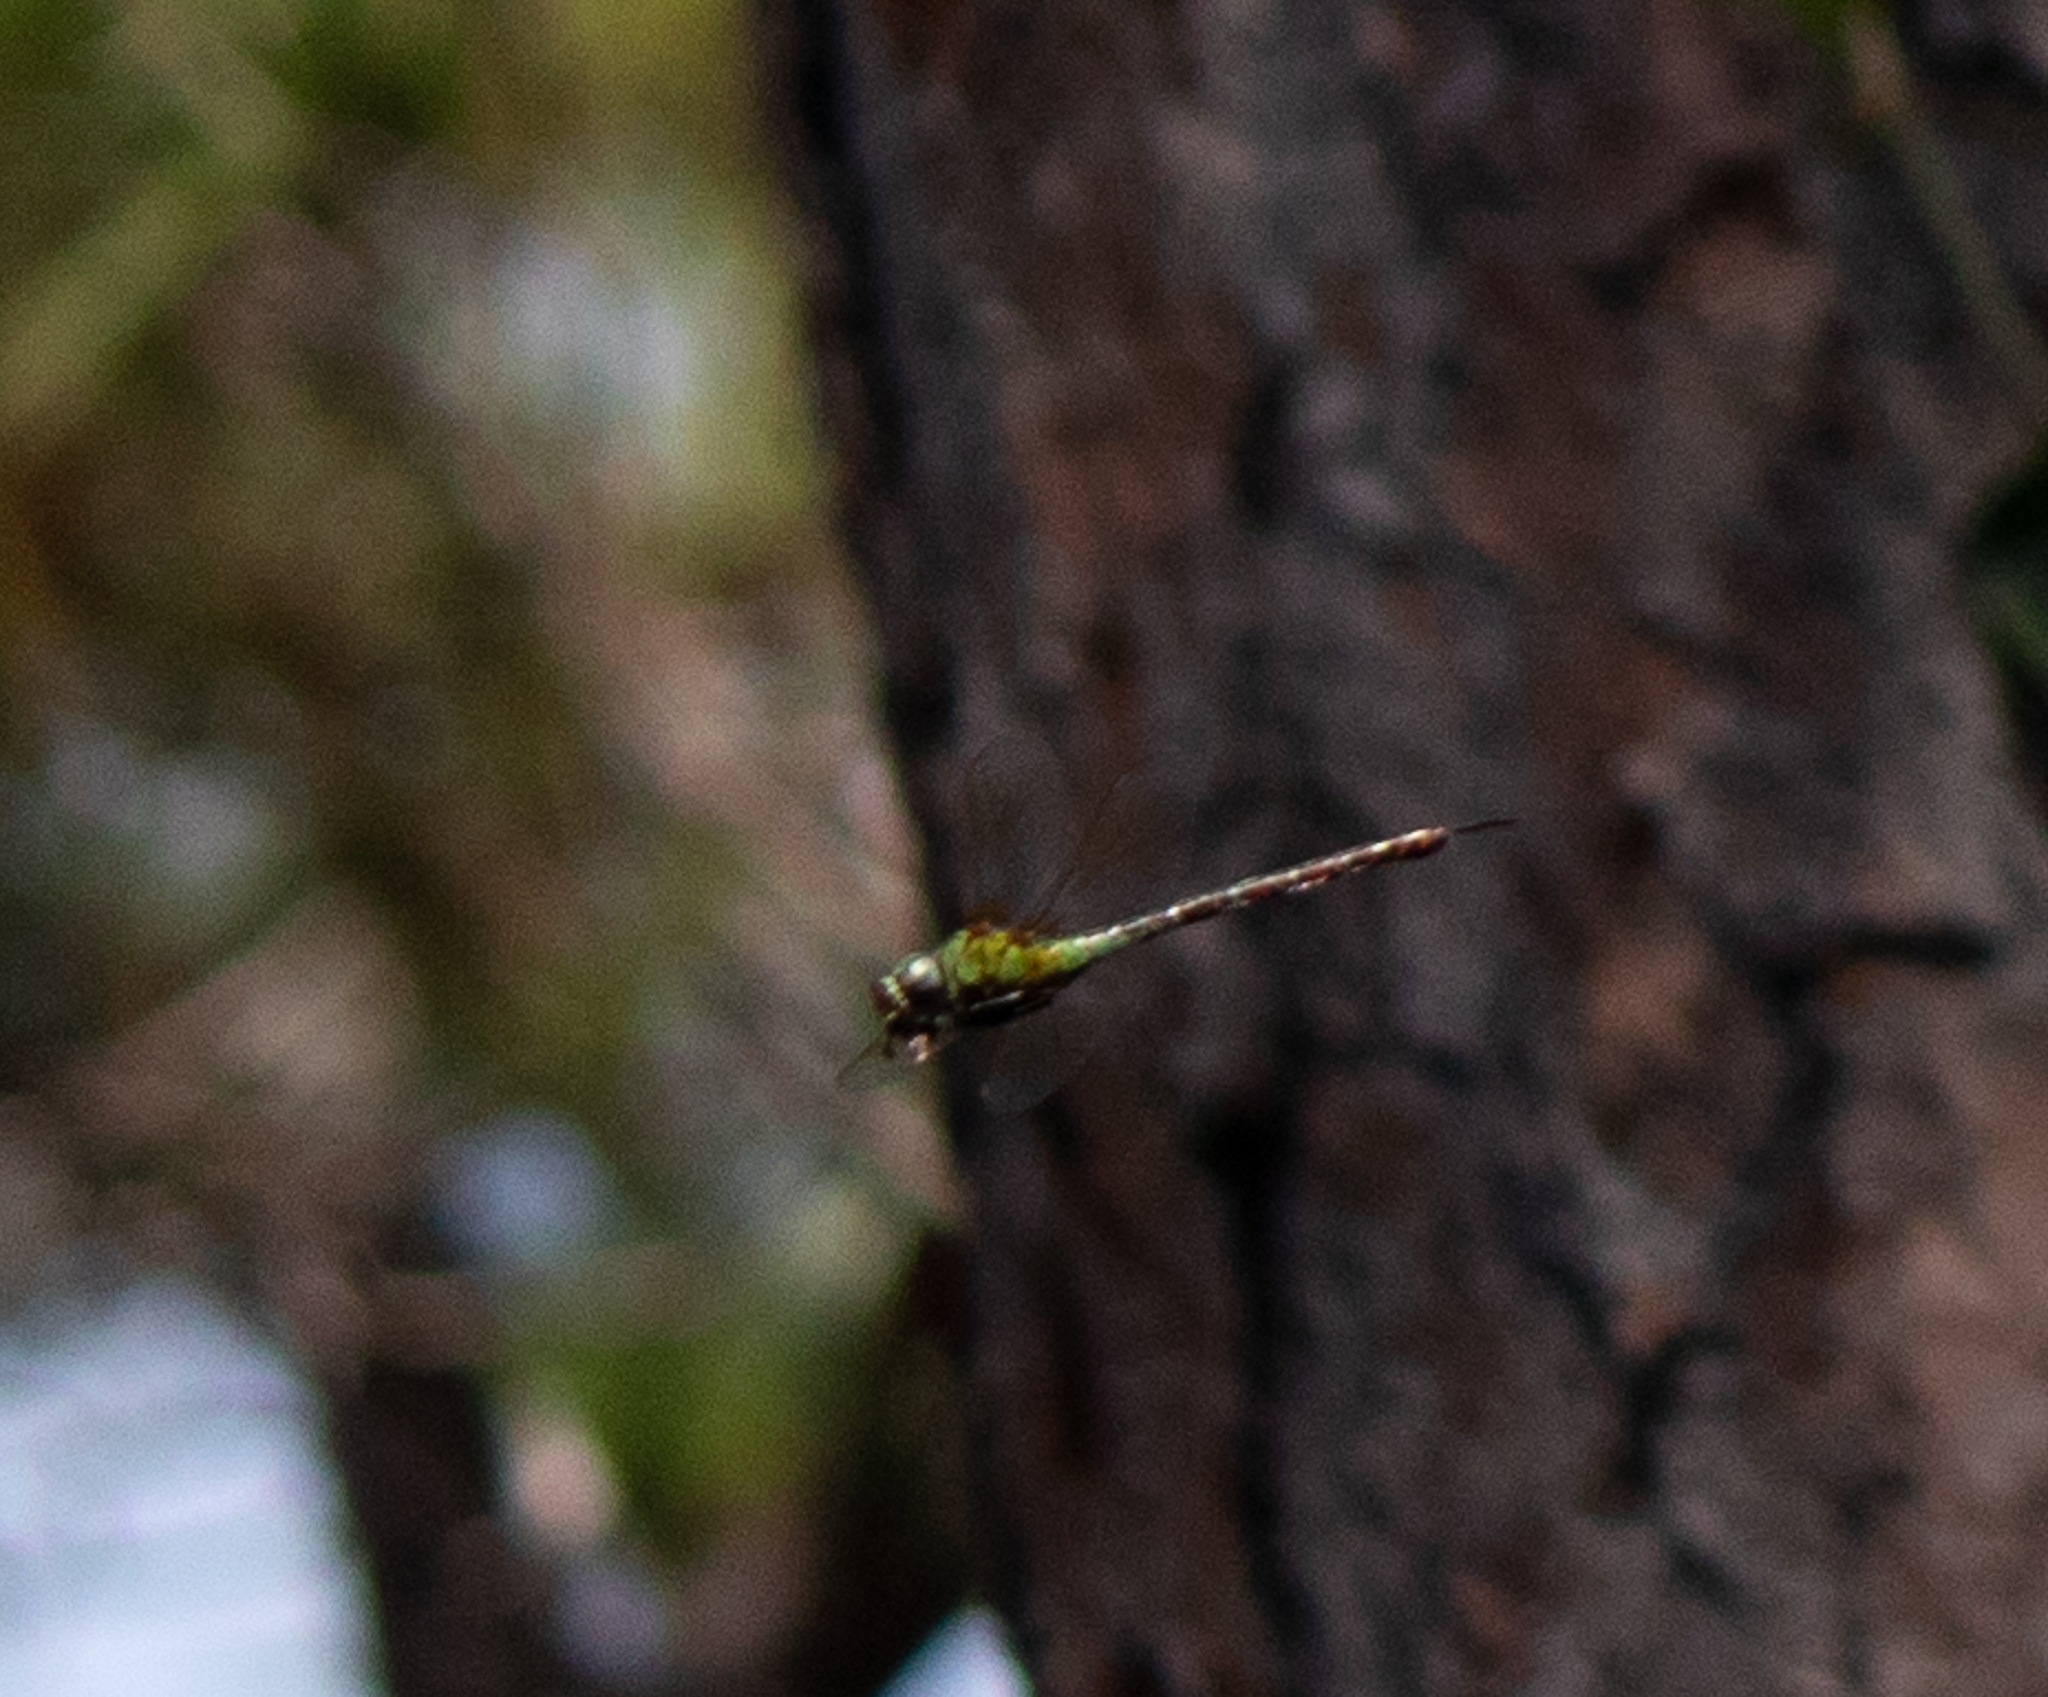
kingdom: Animalia
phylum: Arthropoda
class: Insecta
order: Odonata
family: Aeshnidae
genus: Coryphaeschna
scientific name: Coryphaeschna adnexa
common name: Blue-faced darner
